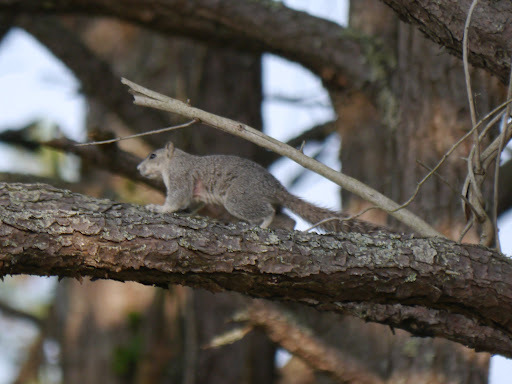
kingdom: Animalia
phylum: Chordata
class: Mammalia
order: Rodentia
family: Sciuridae
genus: Sciurus
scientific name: Sciurus niger
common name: Fox squirrel
